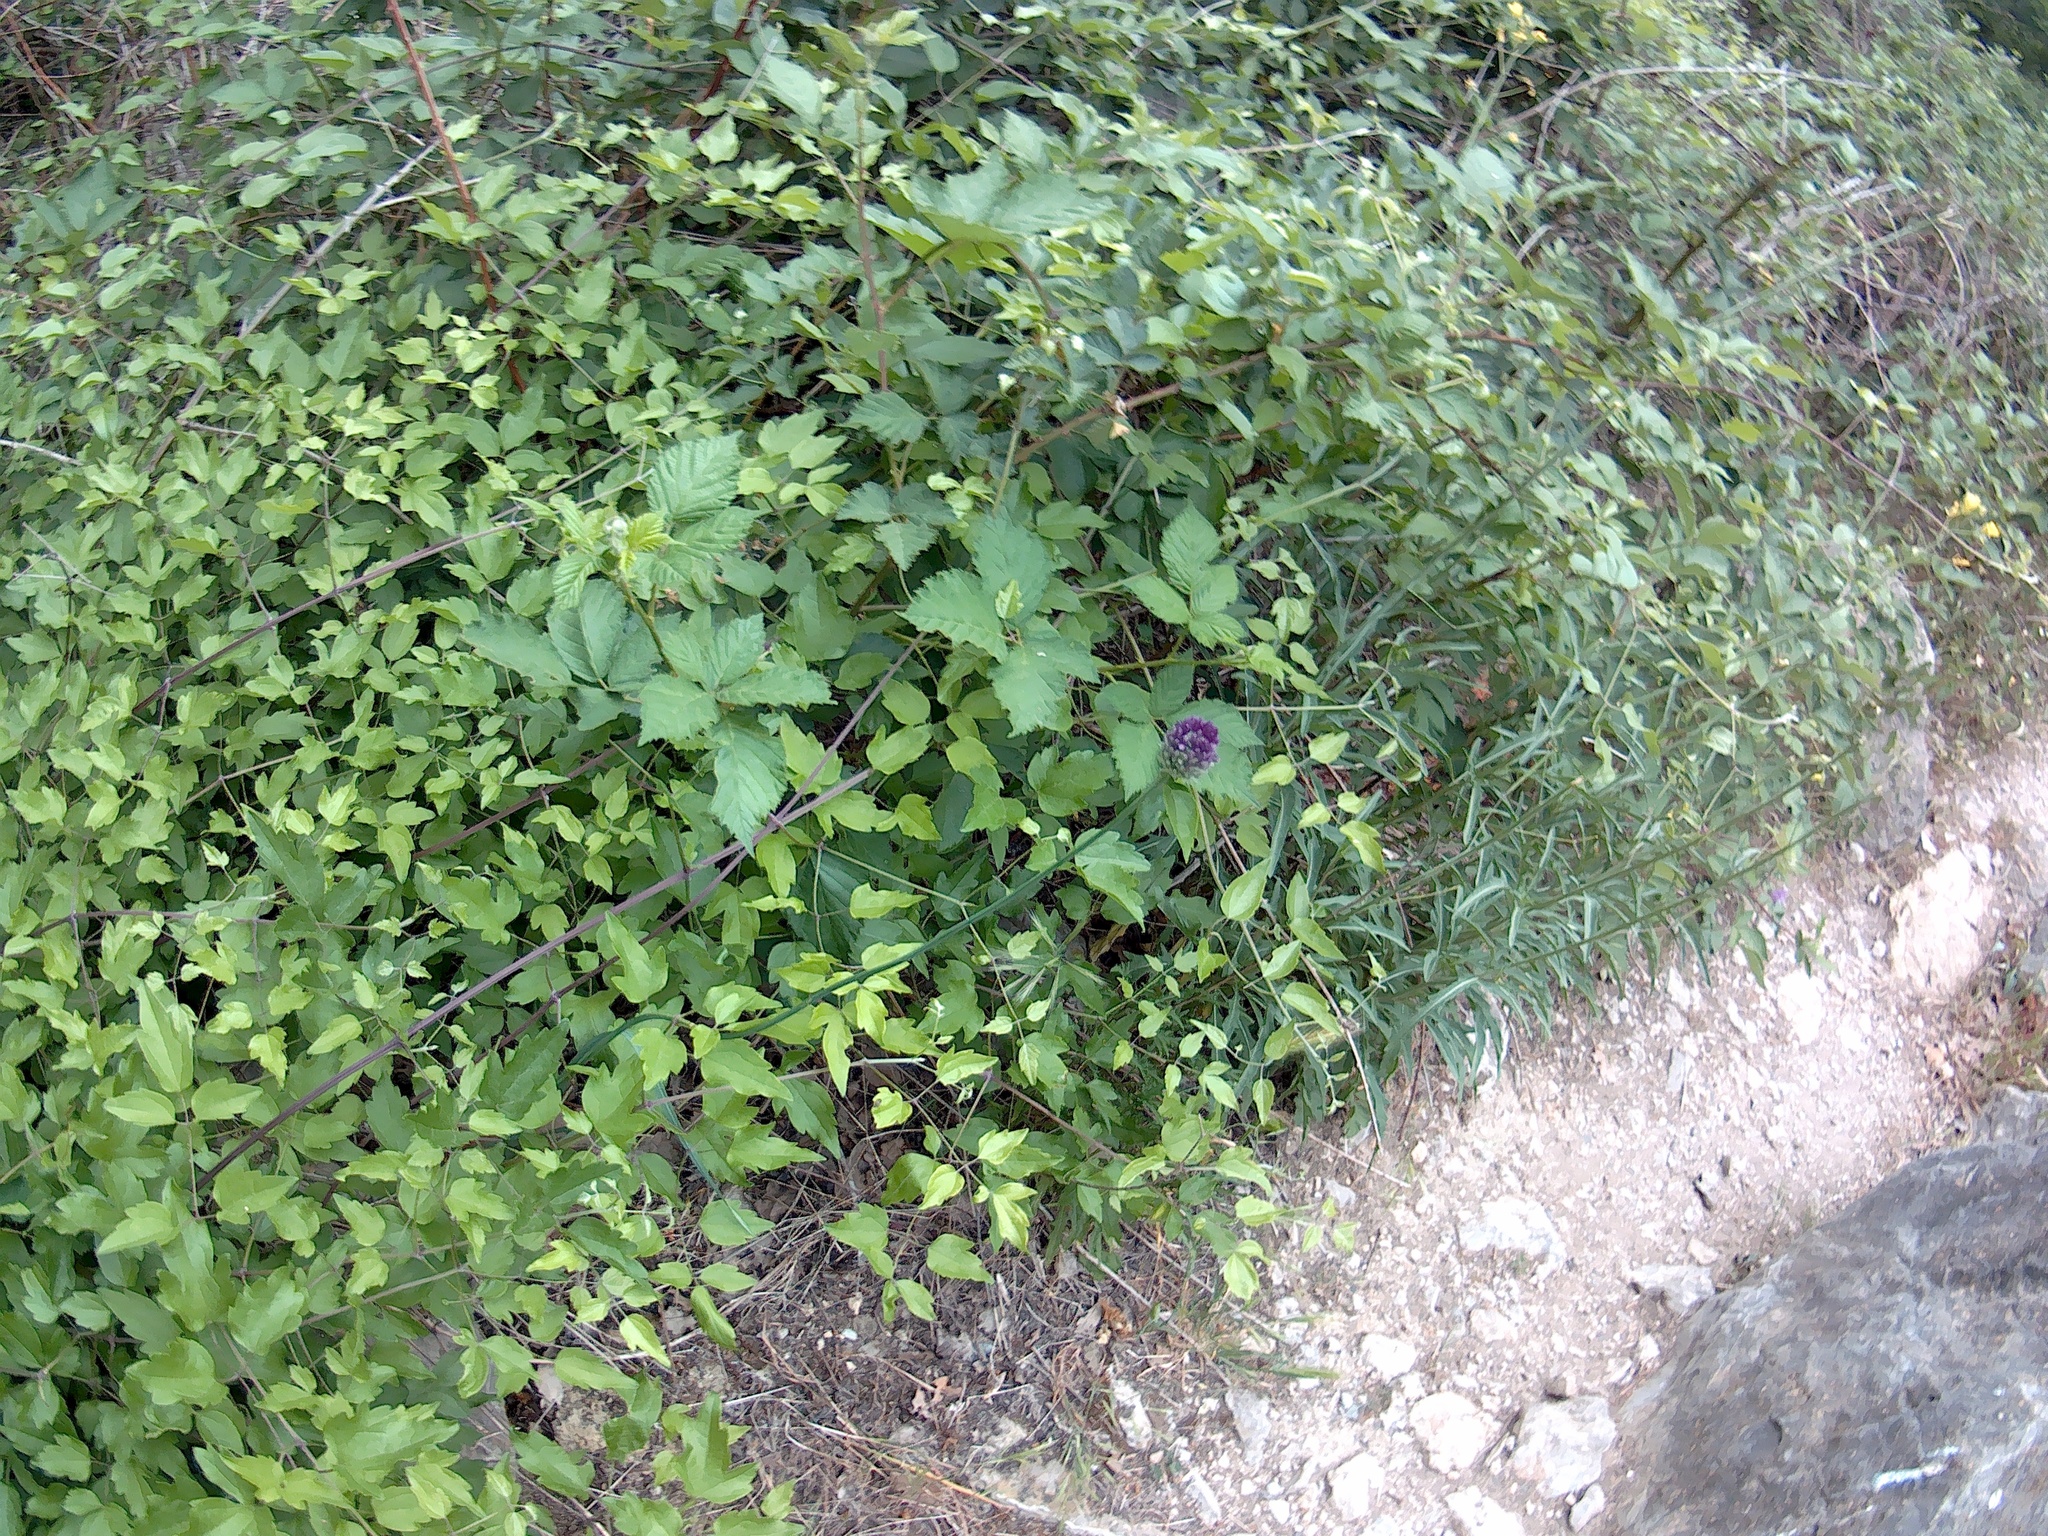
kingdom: Plantae
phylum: Tracheophyta
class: Liliopsida
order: Asparagales
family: Amaryllidaceae
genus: Allium
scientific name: Allium rotundum
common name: Sand leek
